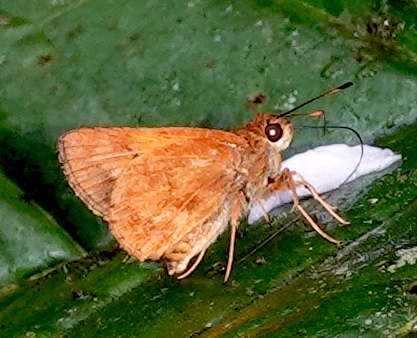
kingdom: Animalia
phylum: Arthropoda
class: Insecta
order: Lepidoptera
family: Hesperiidae
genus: Racta
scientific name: Racta apella
